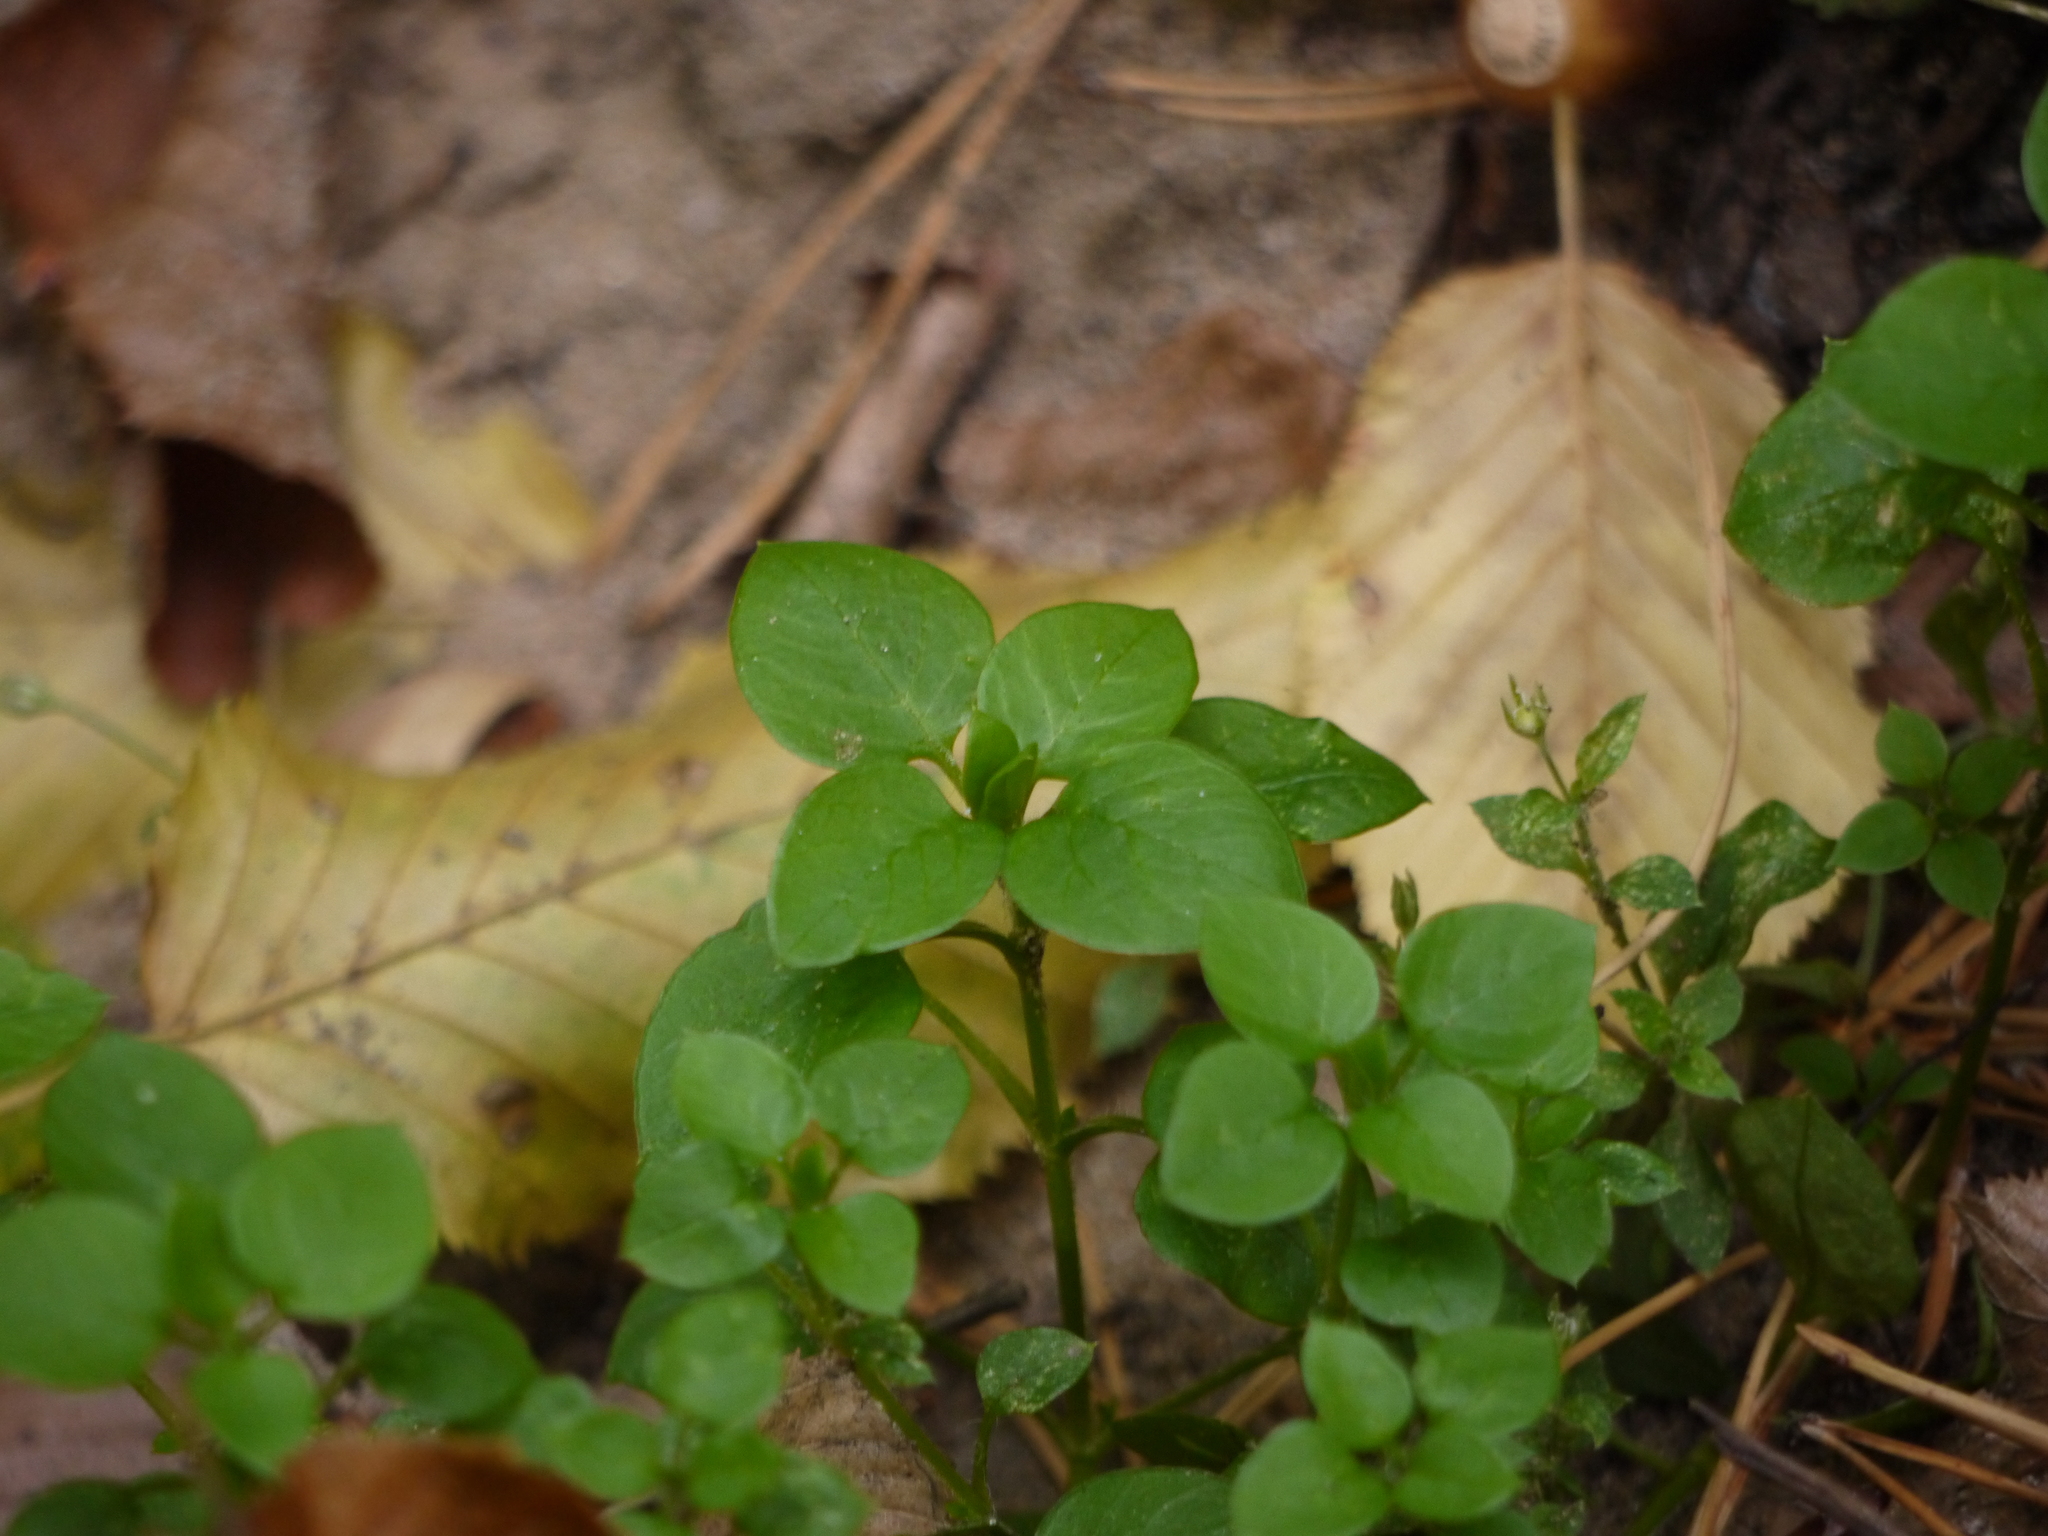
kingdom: Plantae
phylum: Tracheophyta
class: Magnoliopsida
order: Caryophyllales
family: Caryophyllaceae
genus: Stellaria
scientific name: Stellaria media
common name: Common chickweed
